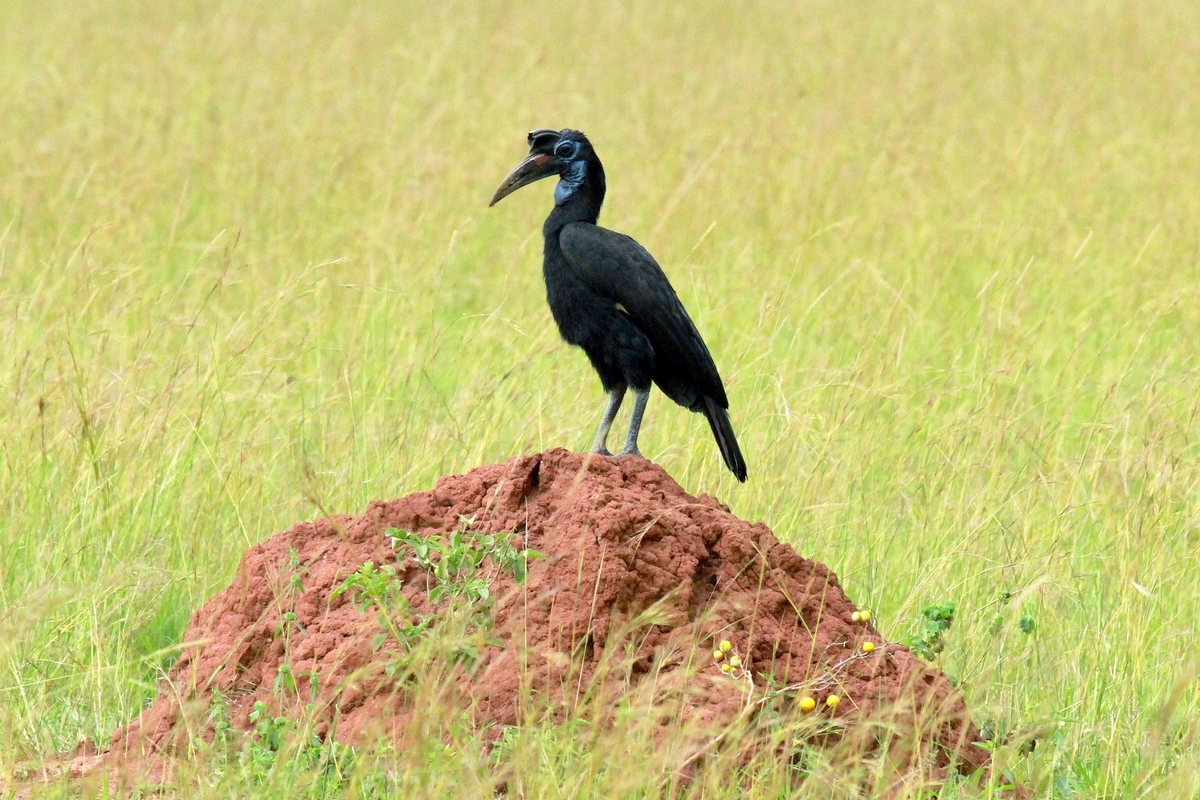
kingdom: Animalia
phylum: Chordata
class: Aves
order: Bucerotiformes
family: Bucorvidae
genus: Bucorvus
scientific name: Bucorvus abyssinicus
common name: Abyssinian ground hornbill
